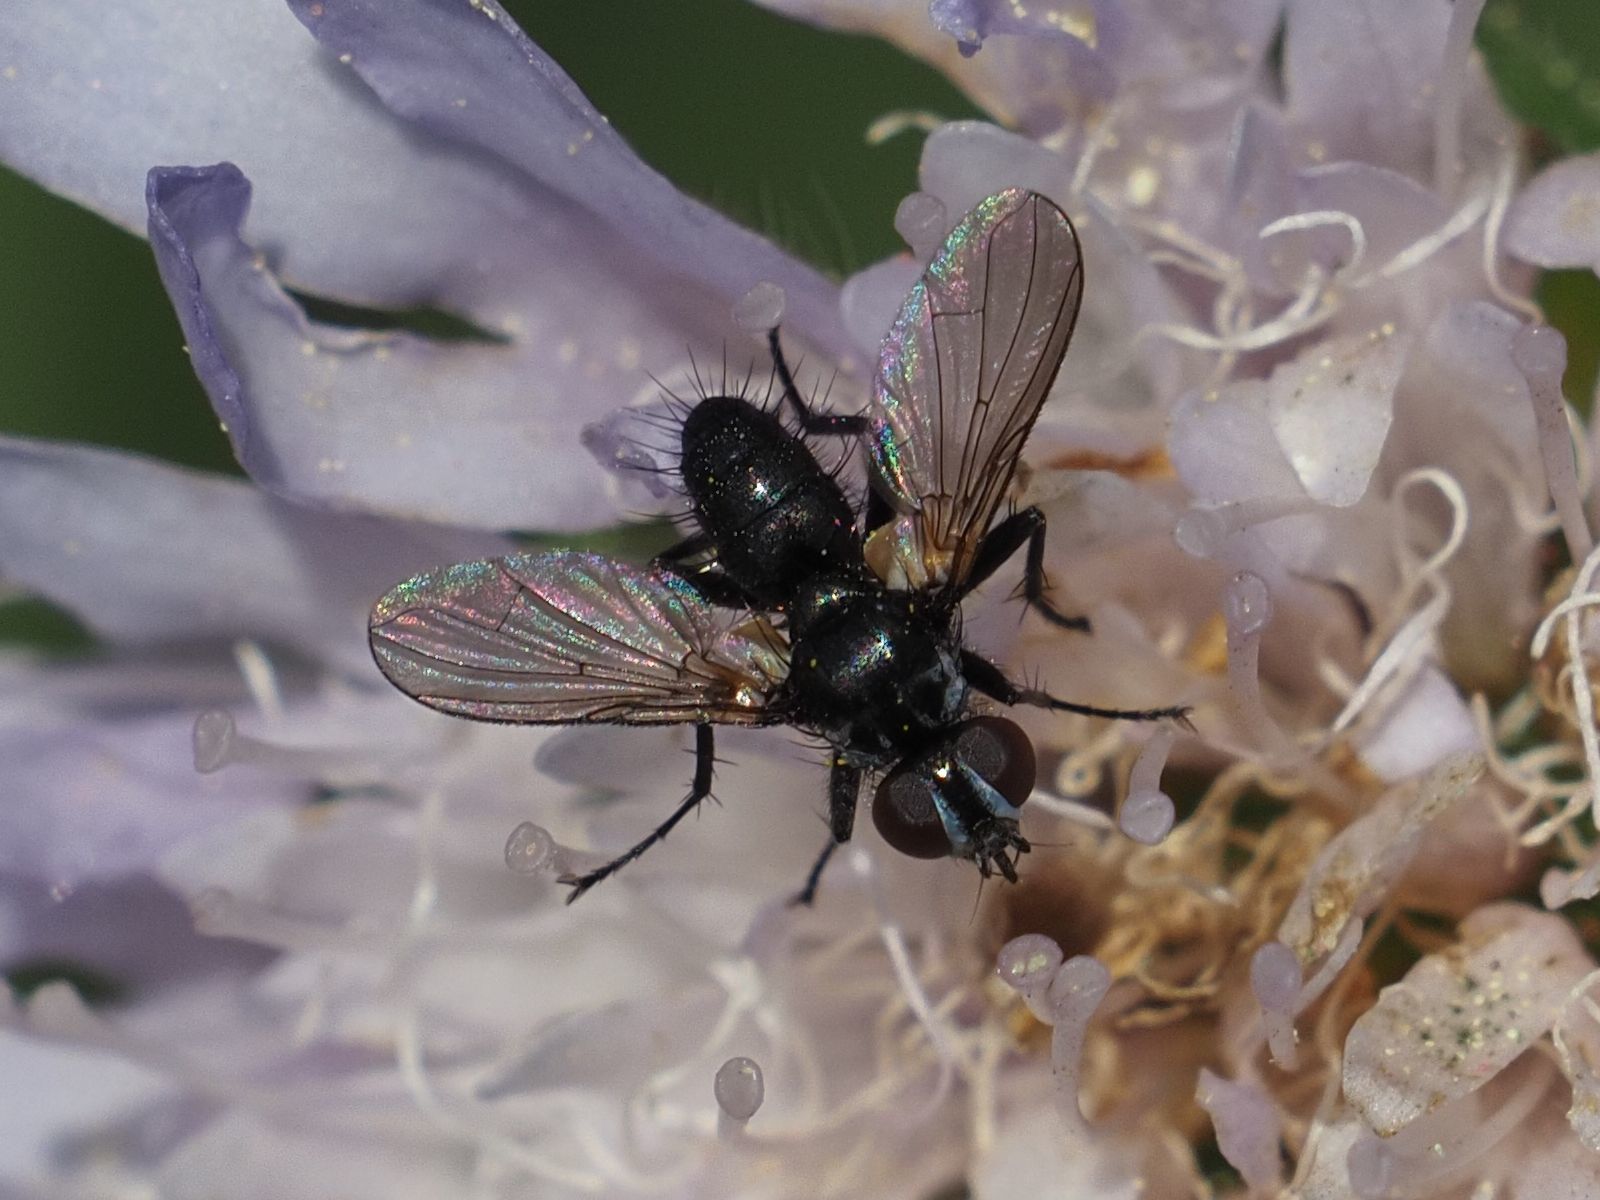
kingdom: Animalia
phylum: Arthropoda
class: Insecta
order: Diptera
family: Tachinidae
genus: Phania
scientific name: Phania funesta
